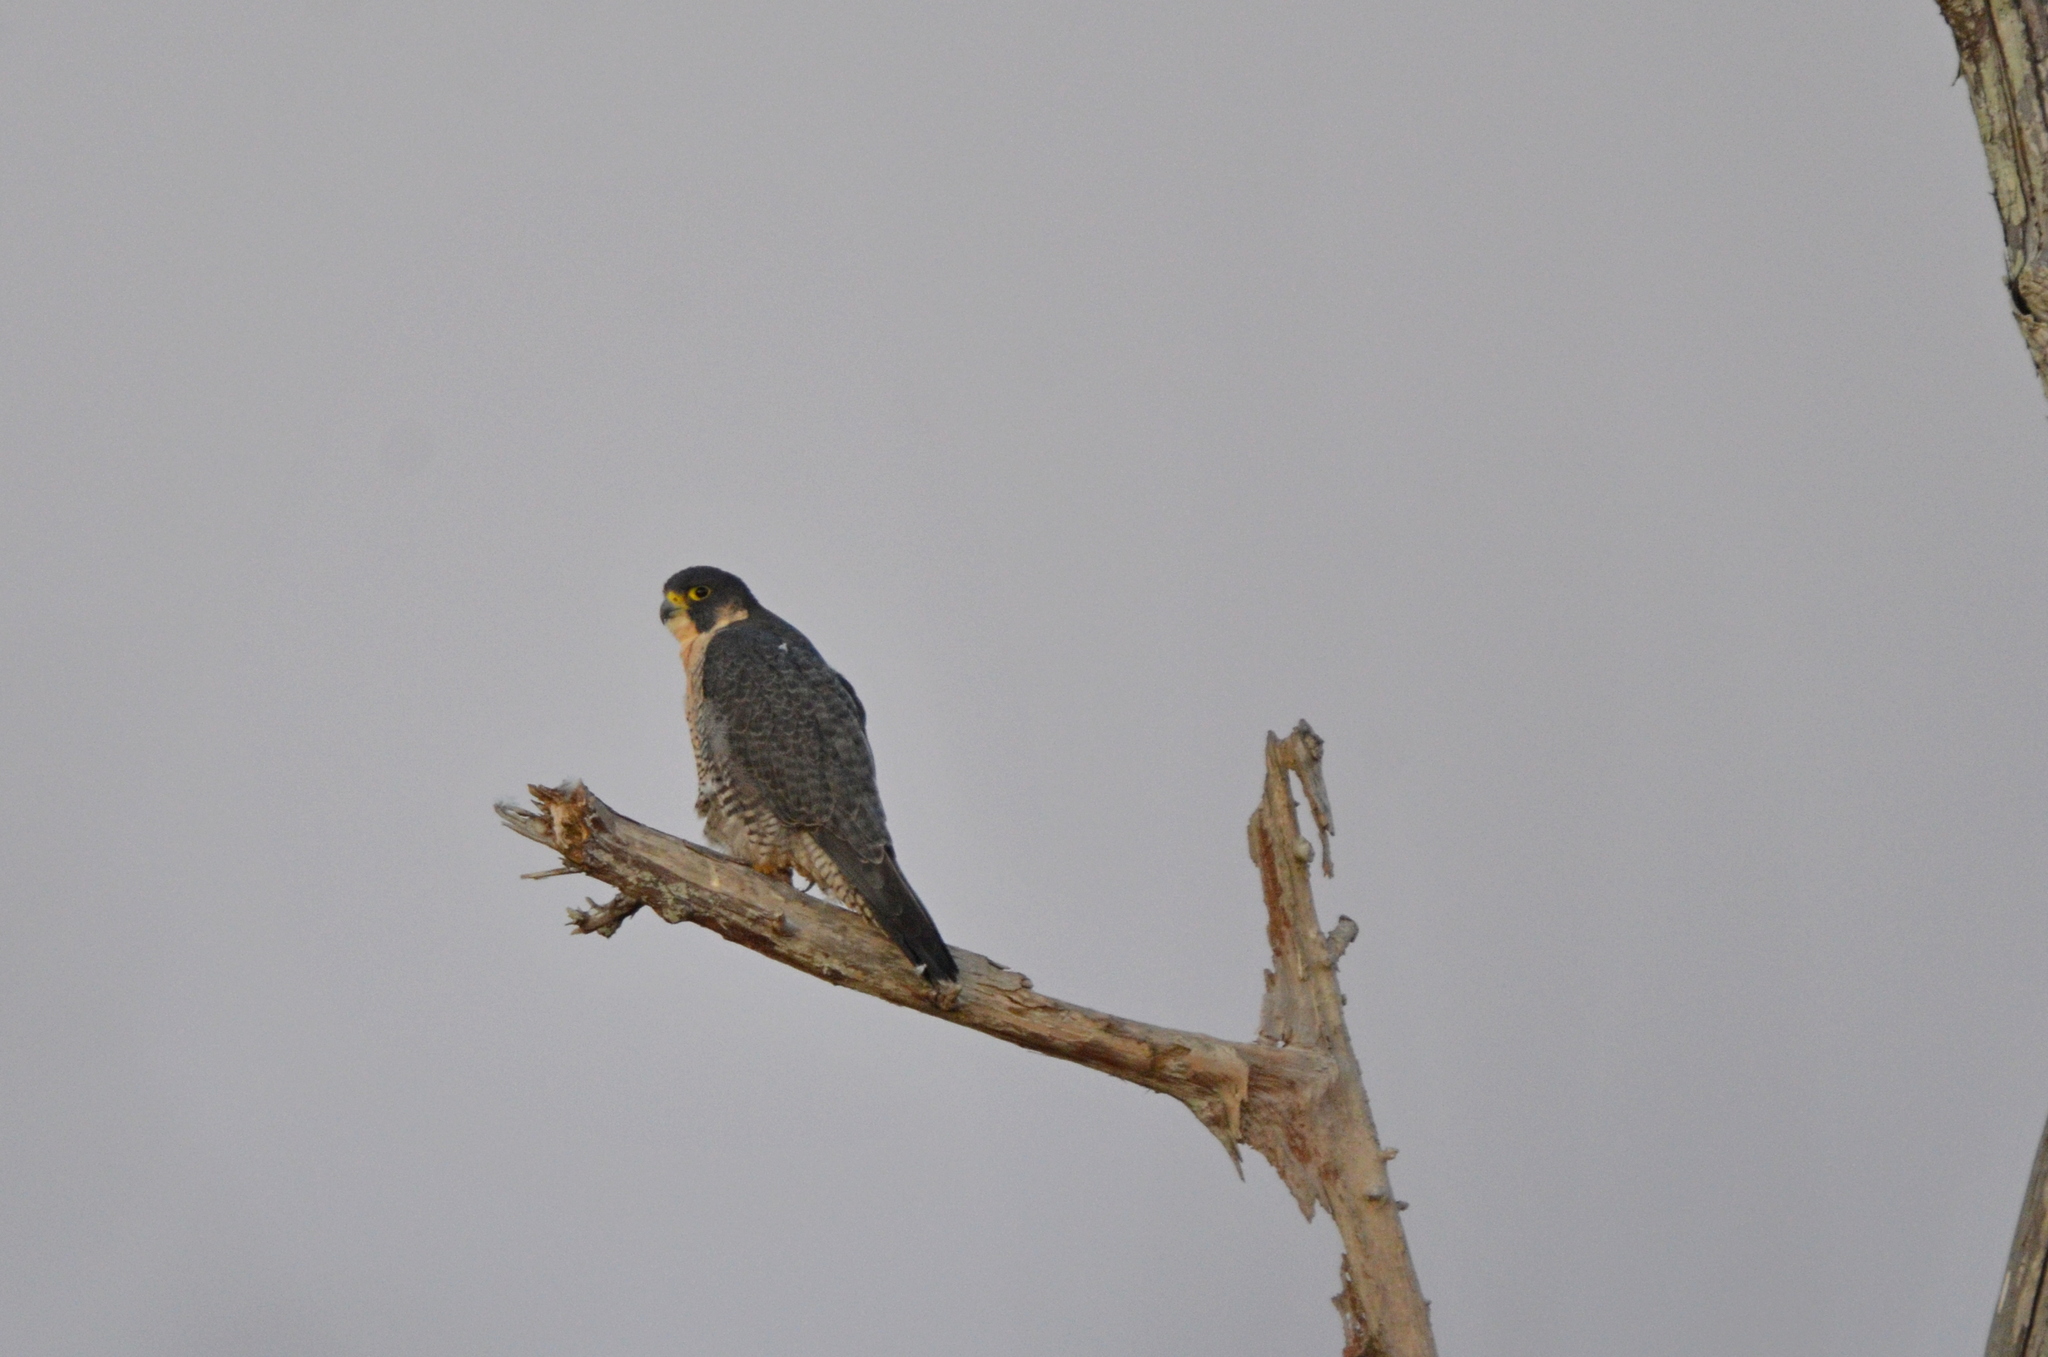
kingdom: Animalia
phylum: Chordata
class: Aves
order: Falconiformes
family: Falconidae
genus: Falco
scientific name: Falco peregrinus
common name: Peregrine falcon
